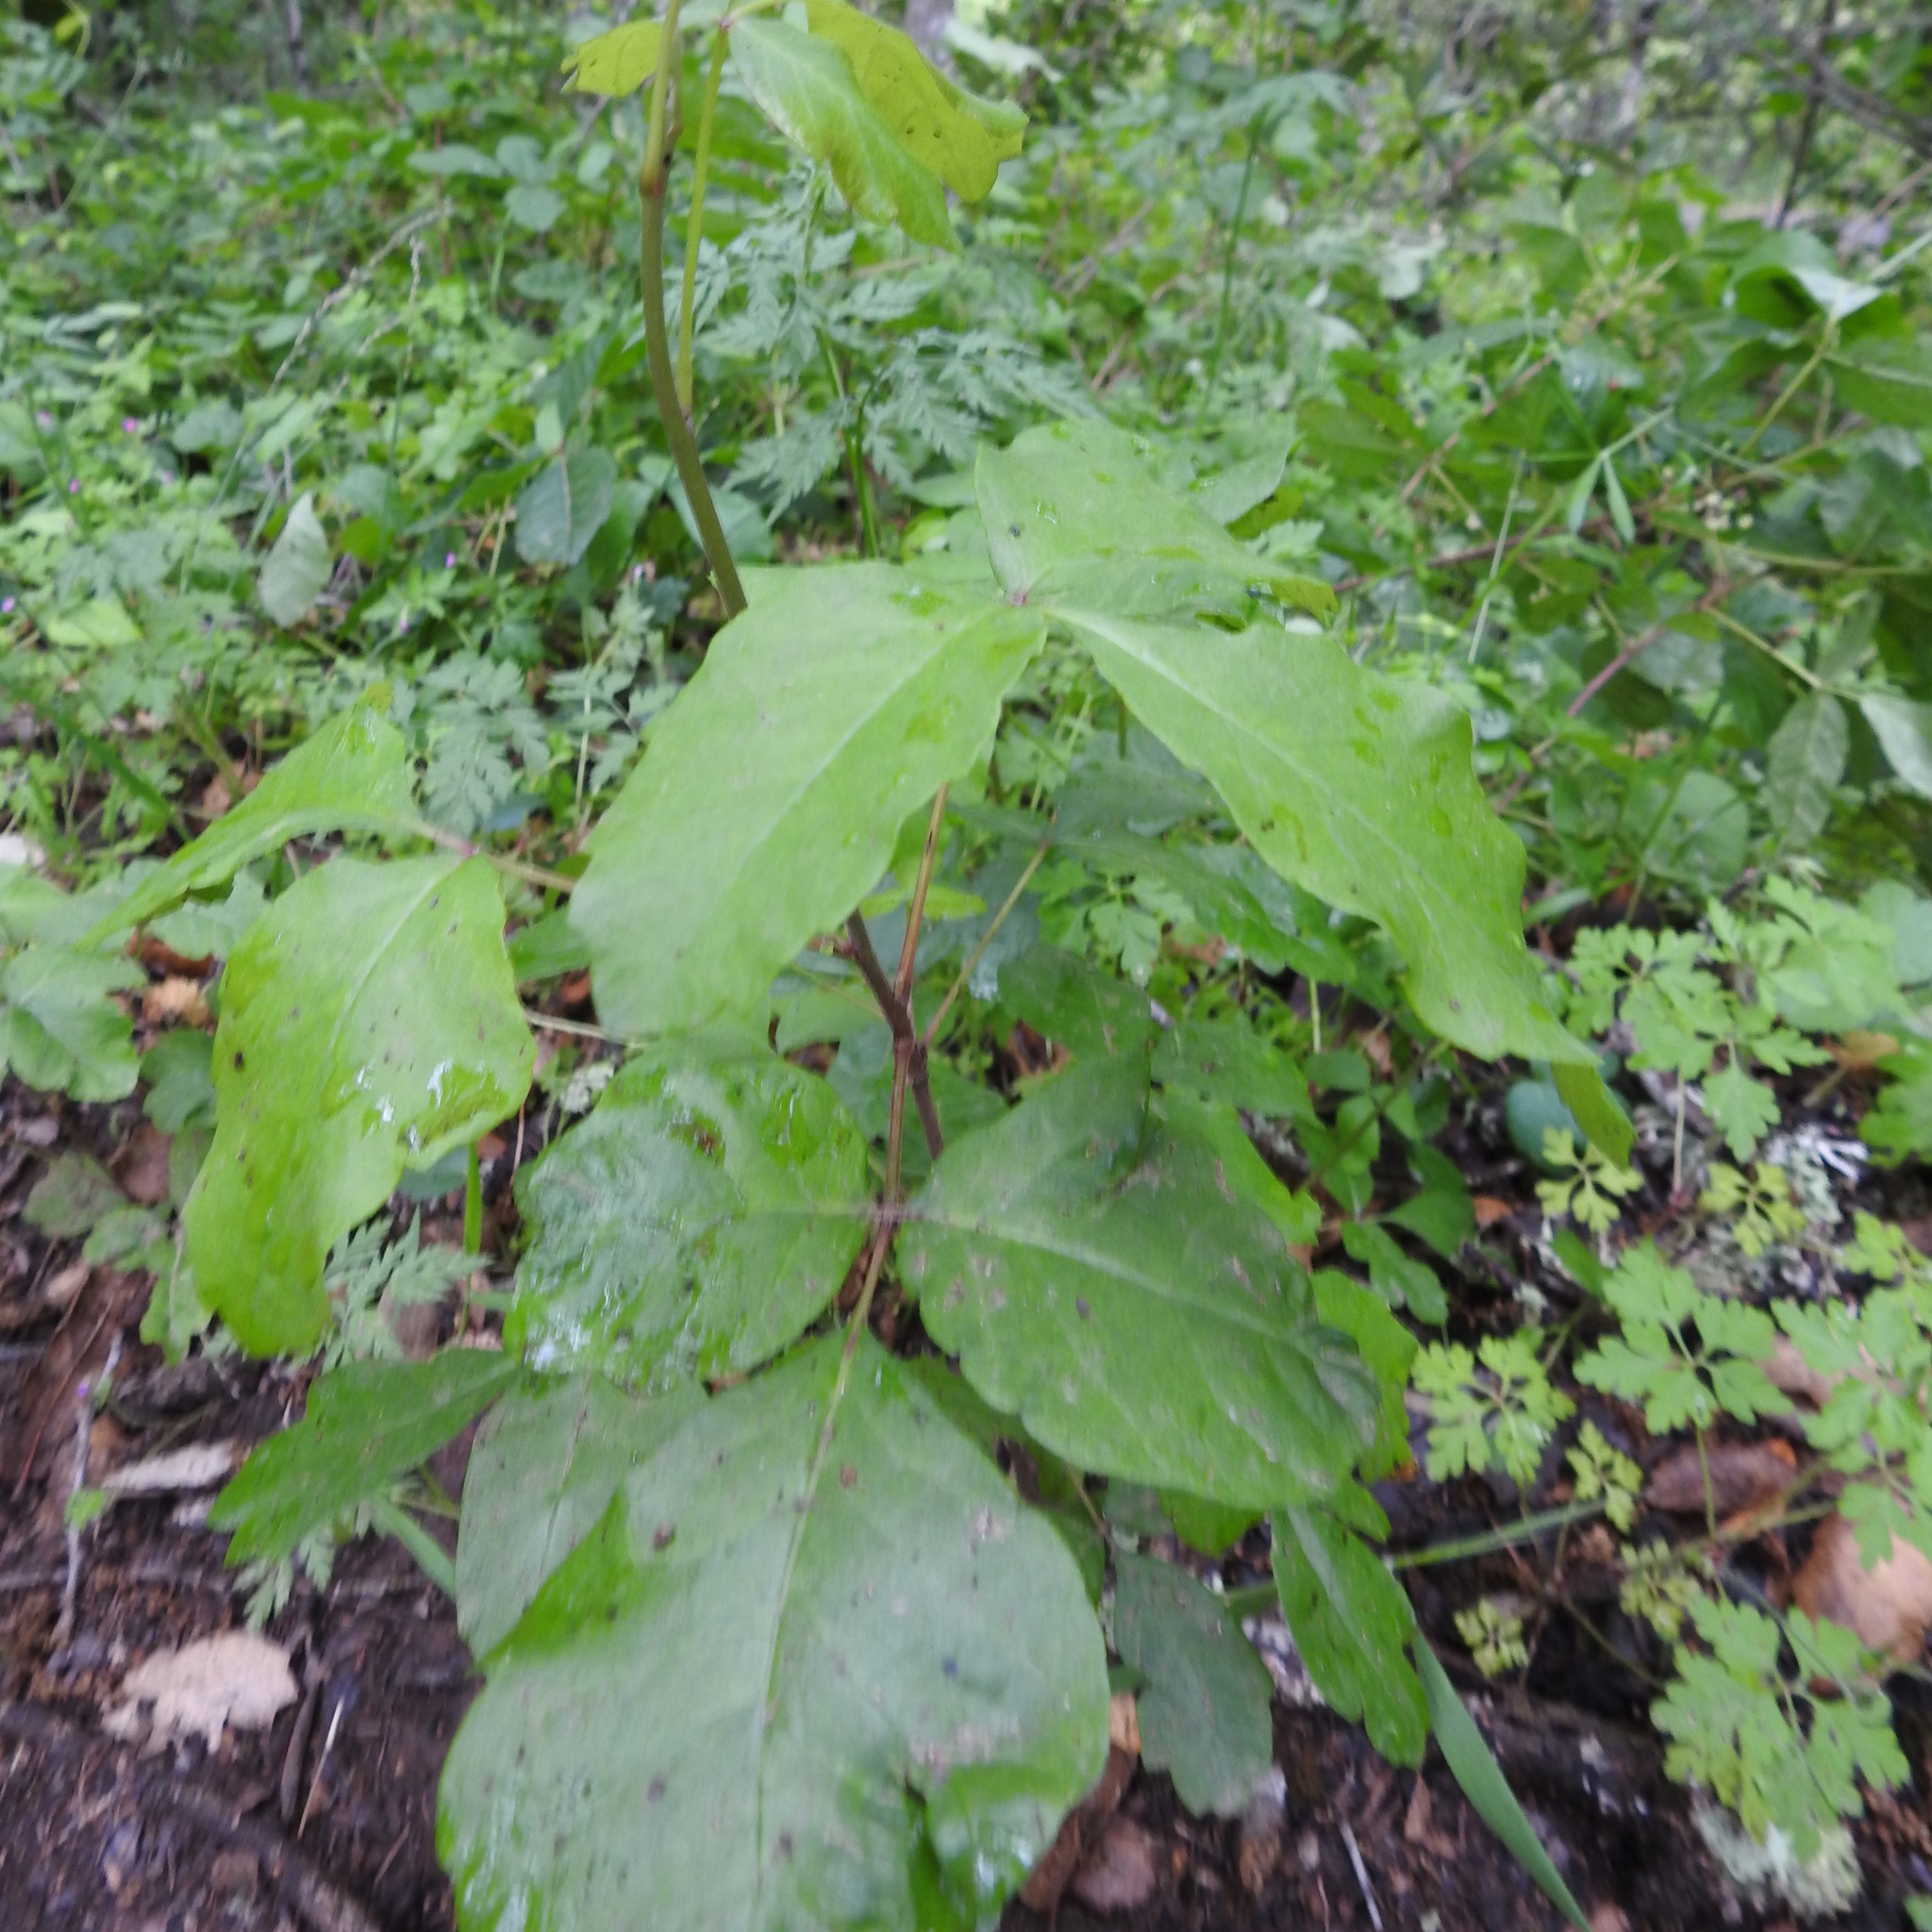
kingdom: Plantae
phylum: Tracheophyta
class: Magnoliopsida
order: Sapindales
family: Anacardiaceae
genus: Toxicodendron
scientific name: Toxicodendron diversilobum
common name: Pacific poison-oak
